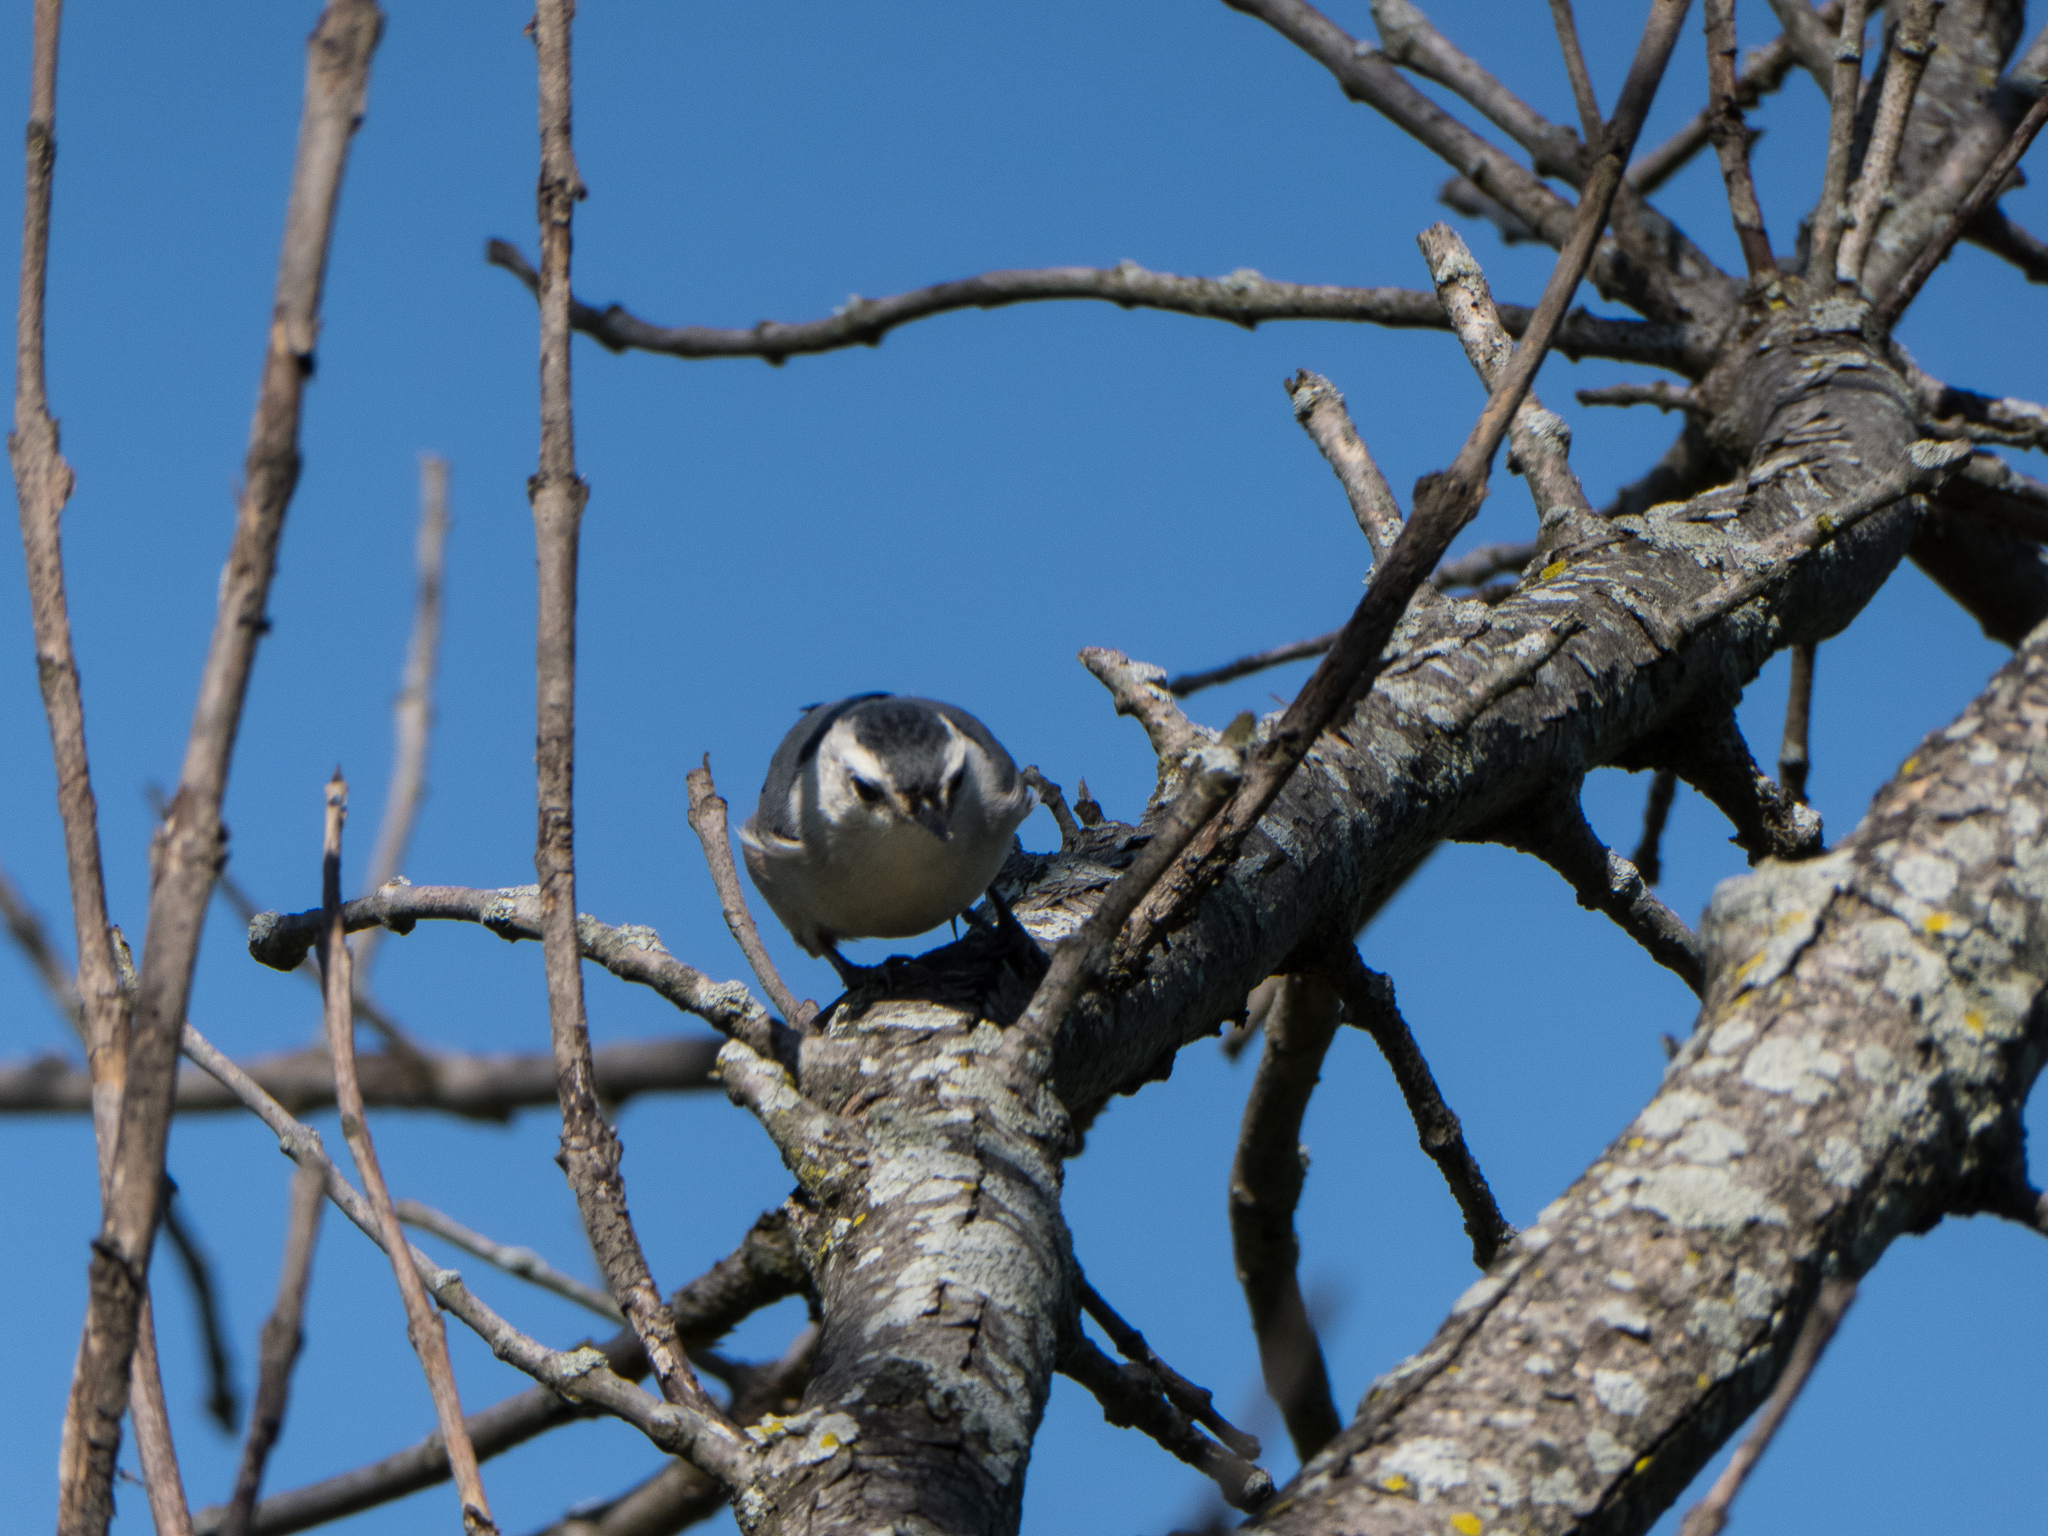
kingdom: Animalia
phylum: Chordata
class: Aves
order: Passeriformes
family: Sittidae
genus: Sitta
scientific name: Sitta carolinensis
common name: White-breasted nuthatch
